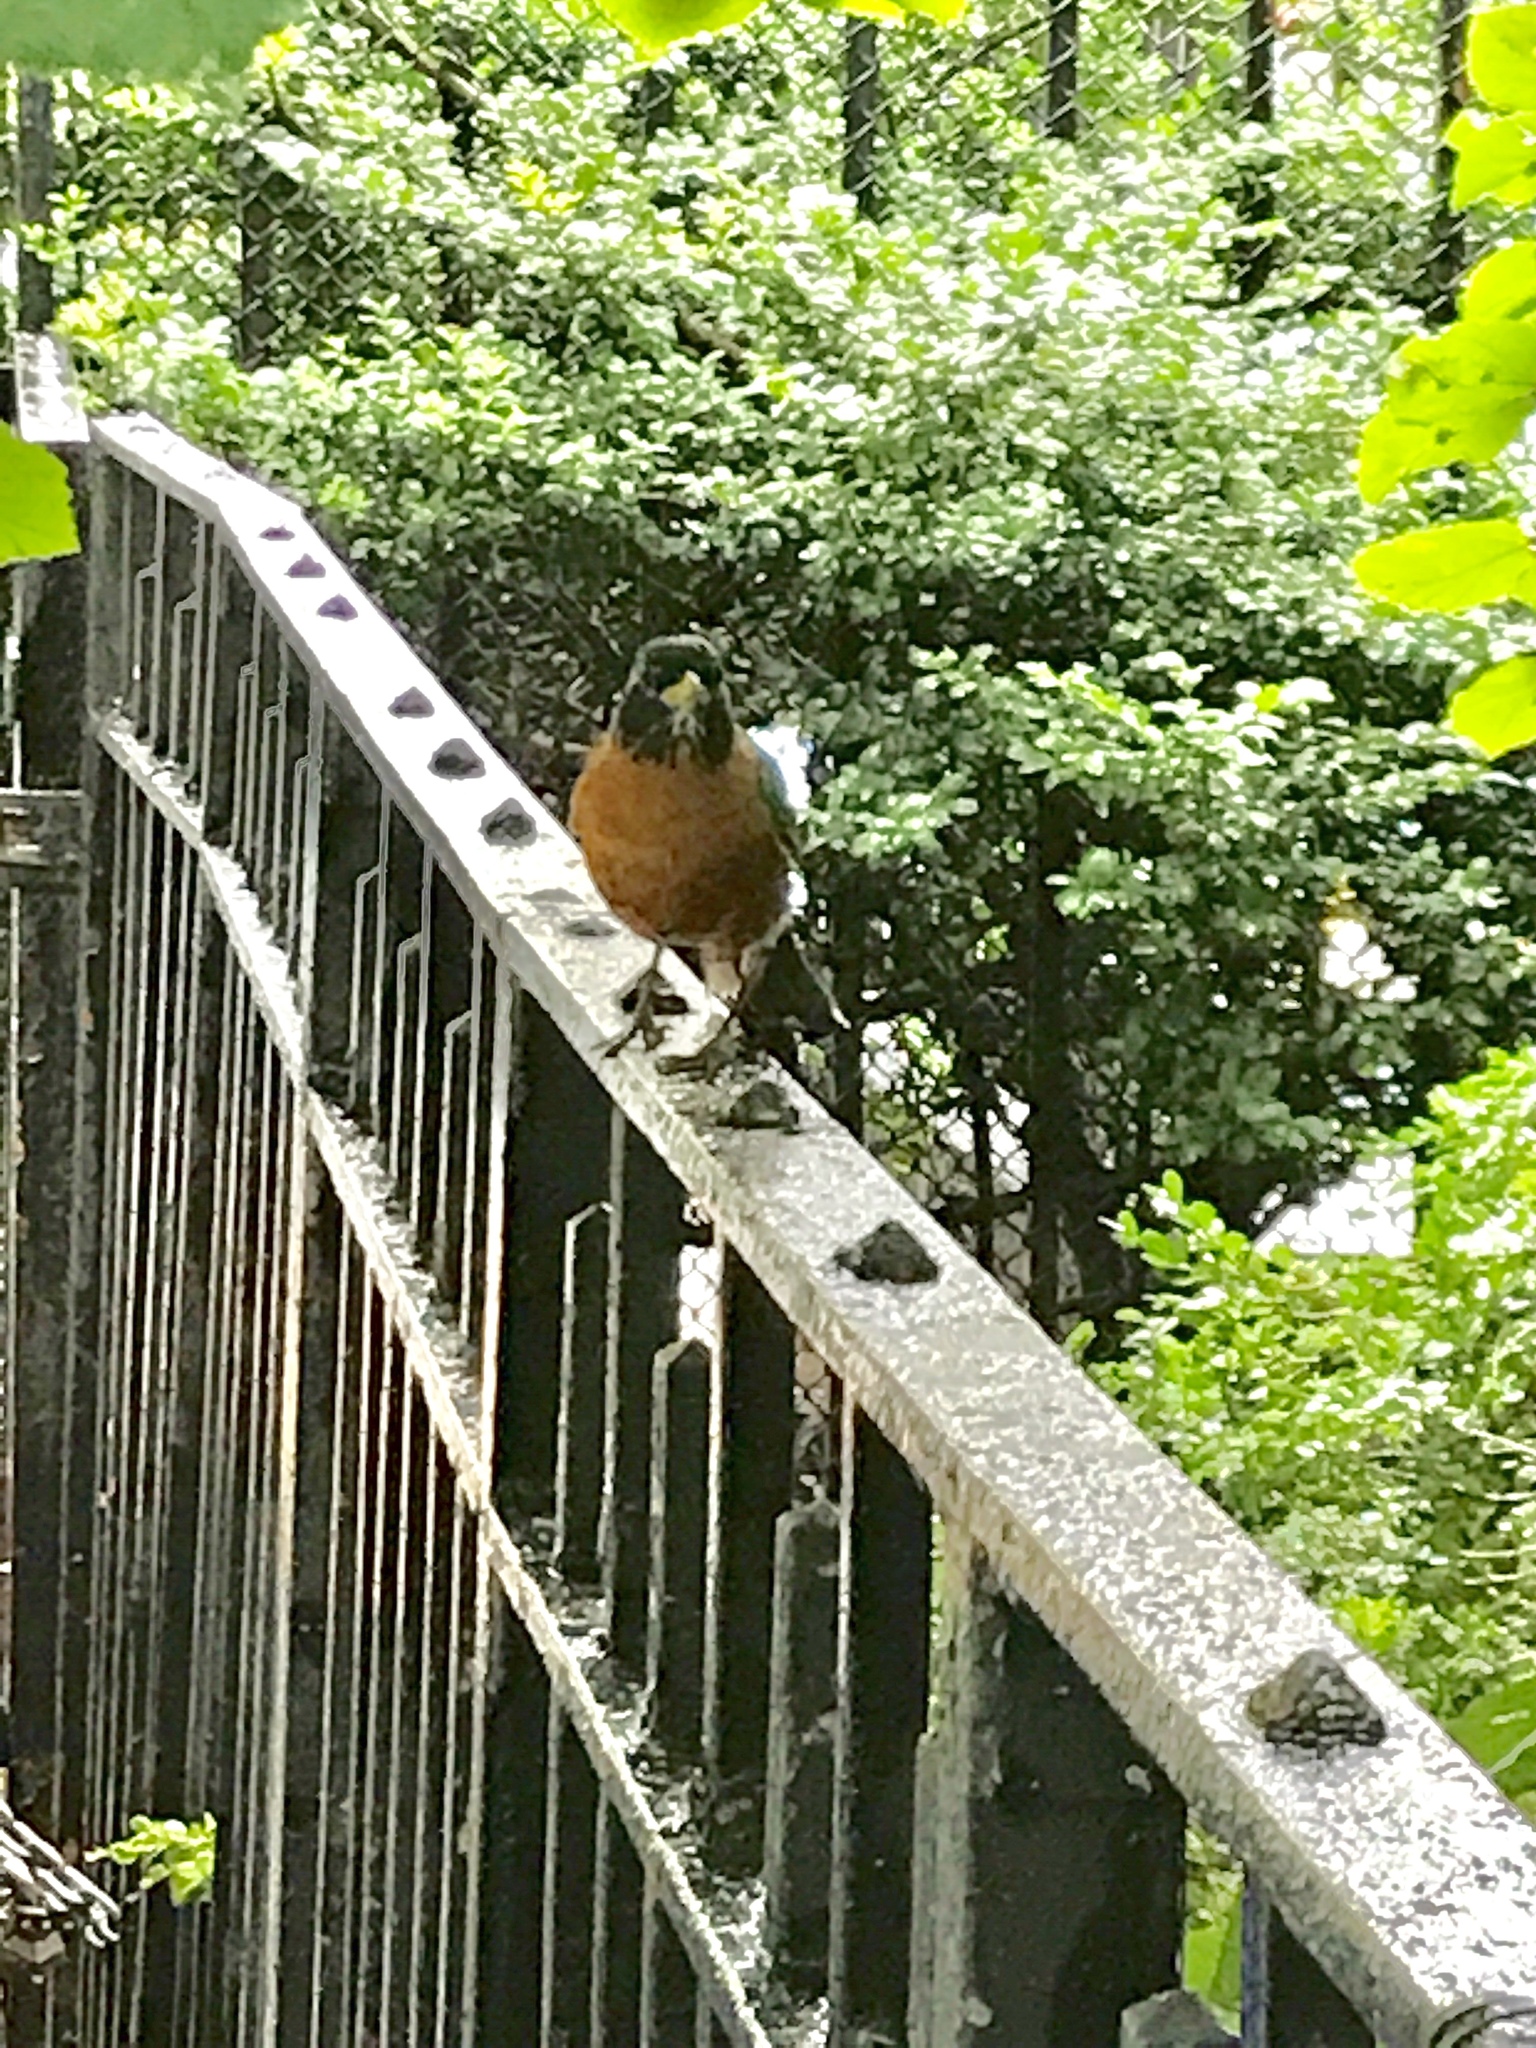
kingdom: Animalia
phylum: Chordata
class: Aves
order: Passeriformes
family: Turdidae
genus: Turdus
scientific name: Turdus migratorius
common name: American robin
